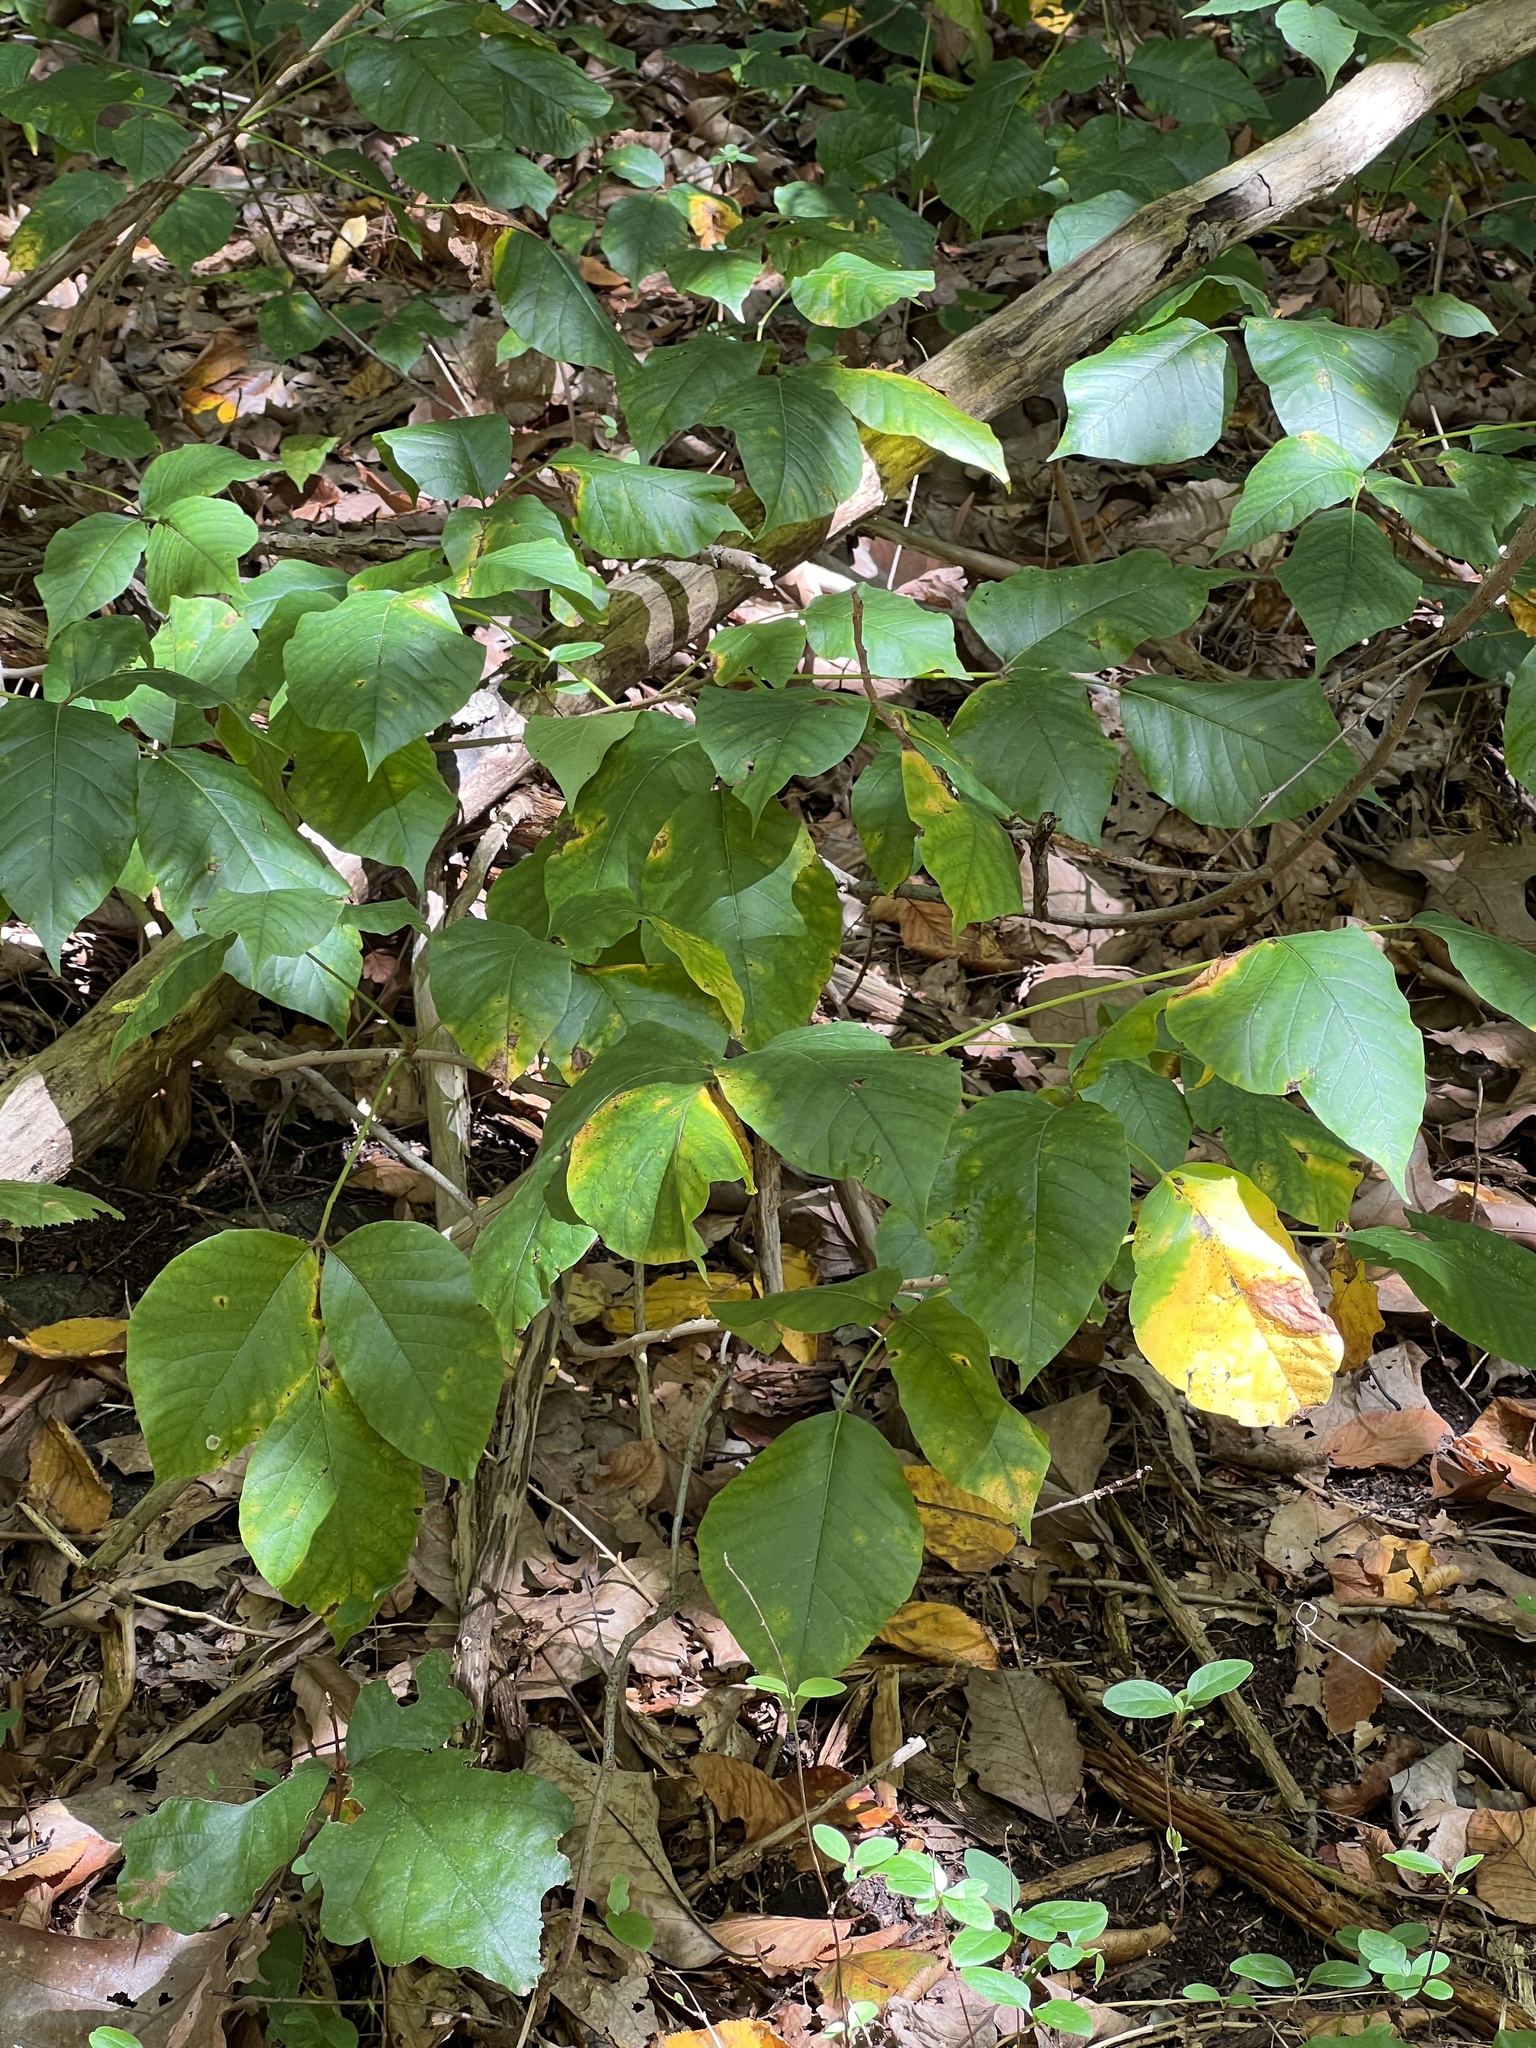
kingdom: Plantae
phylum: Tracheophyta
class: Magnoliopsida
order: Sapindales
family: Anacardiaceae
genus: Toxicodendron
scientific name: Toxicodendron radicans
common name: Poison ivy
